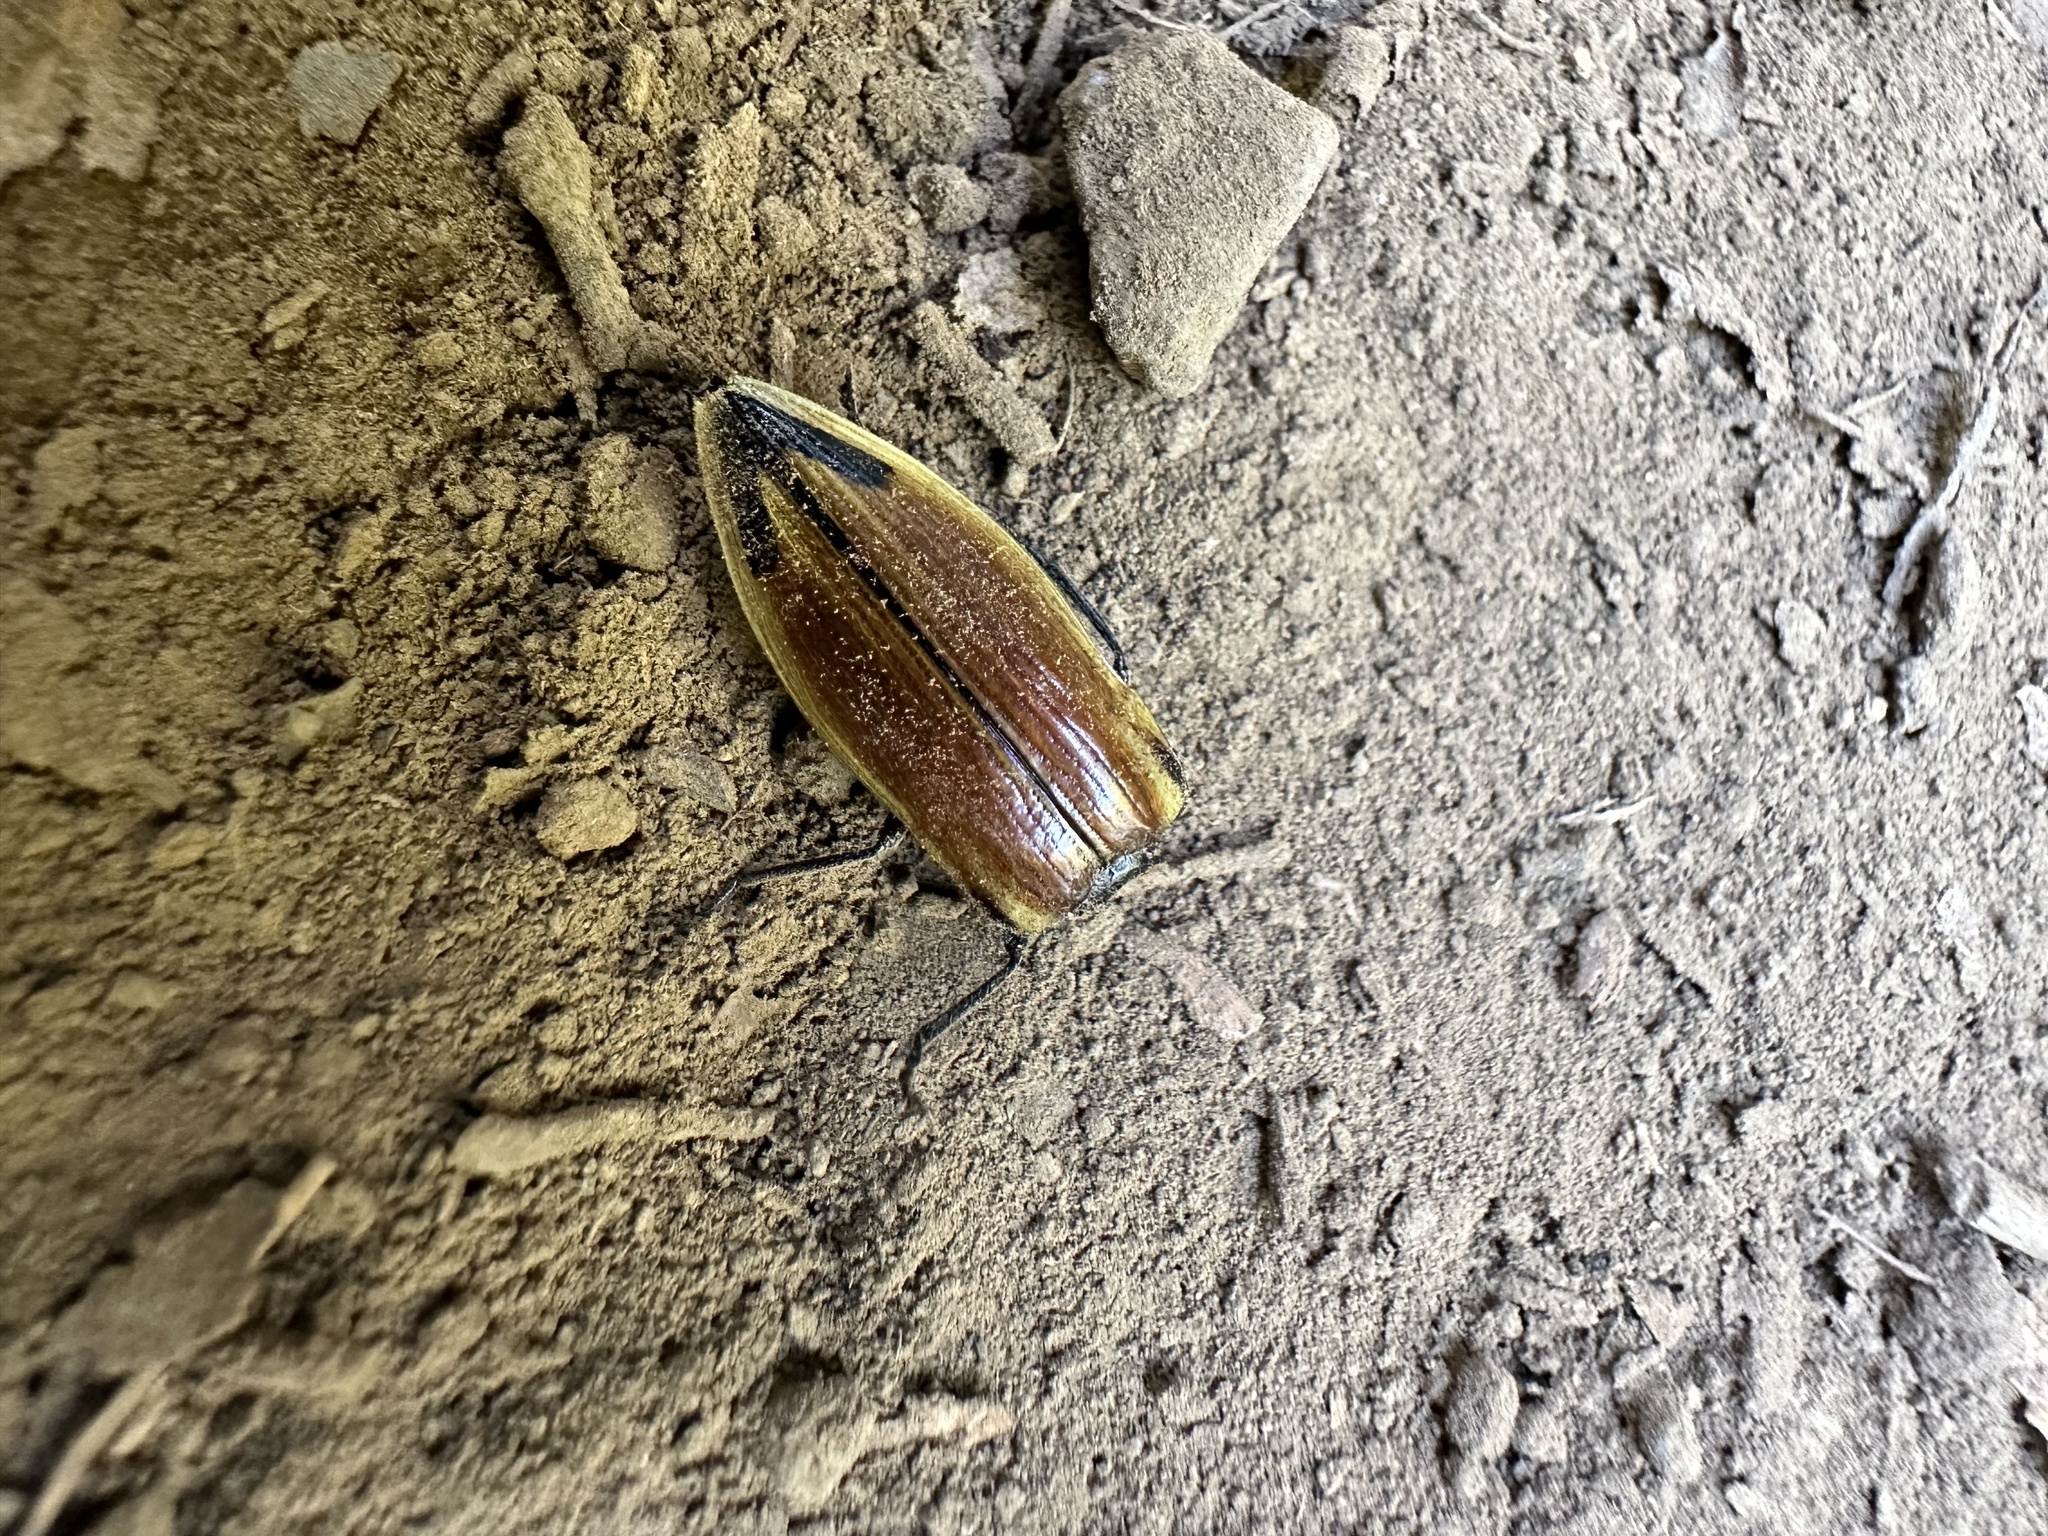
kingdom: Animalia
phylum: Arthropoda
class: Insecta
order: Coleoptera
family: Buprestidae
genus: Epistomentis
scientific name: Epistomentis pictus
